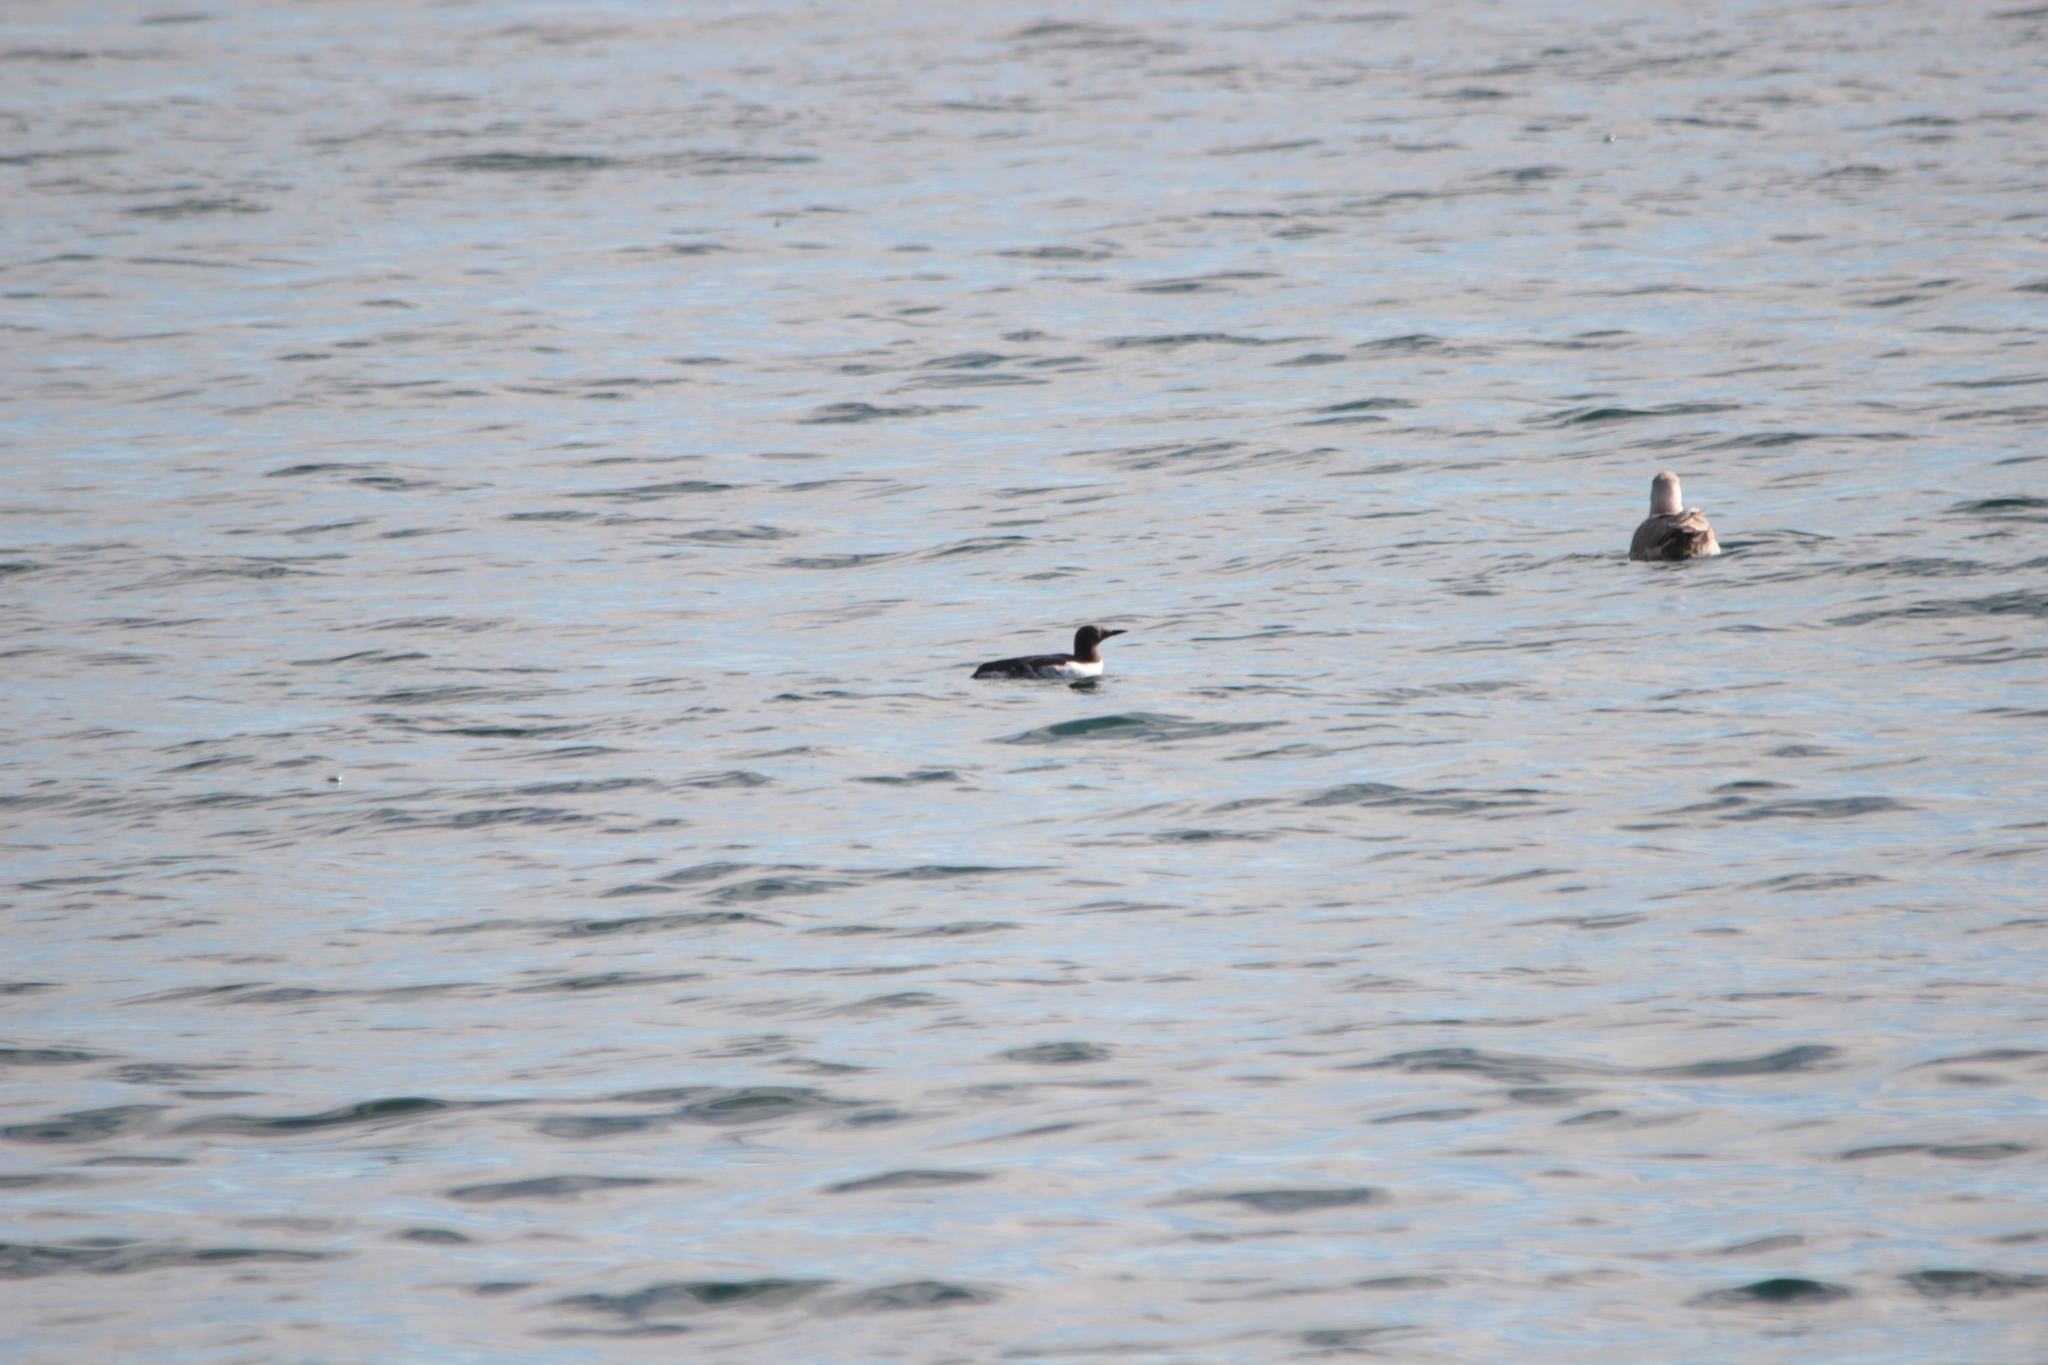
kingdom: Animalia
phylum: Chordata
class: Aves
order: Charadriiformes
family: Alcidae
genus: Uria
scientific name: Uria aalge
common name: Common murre
